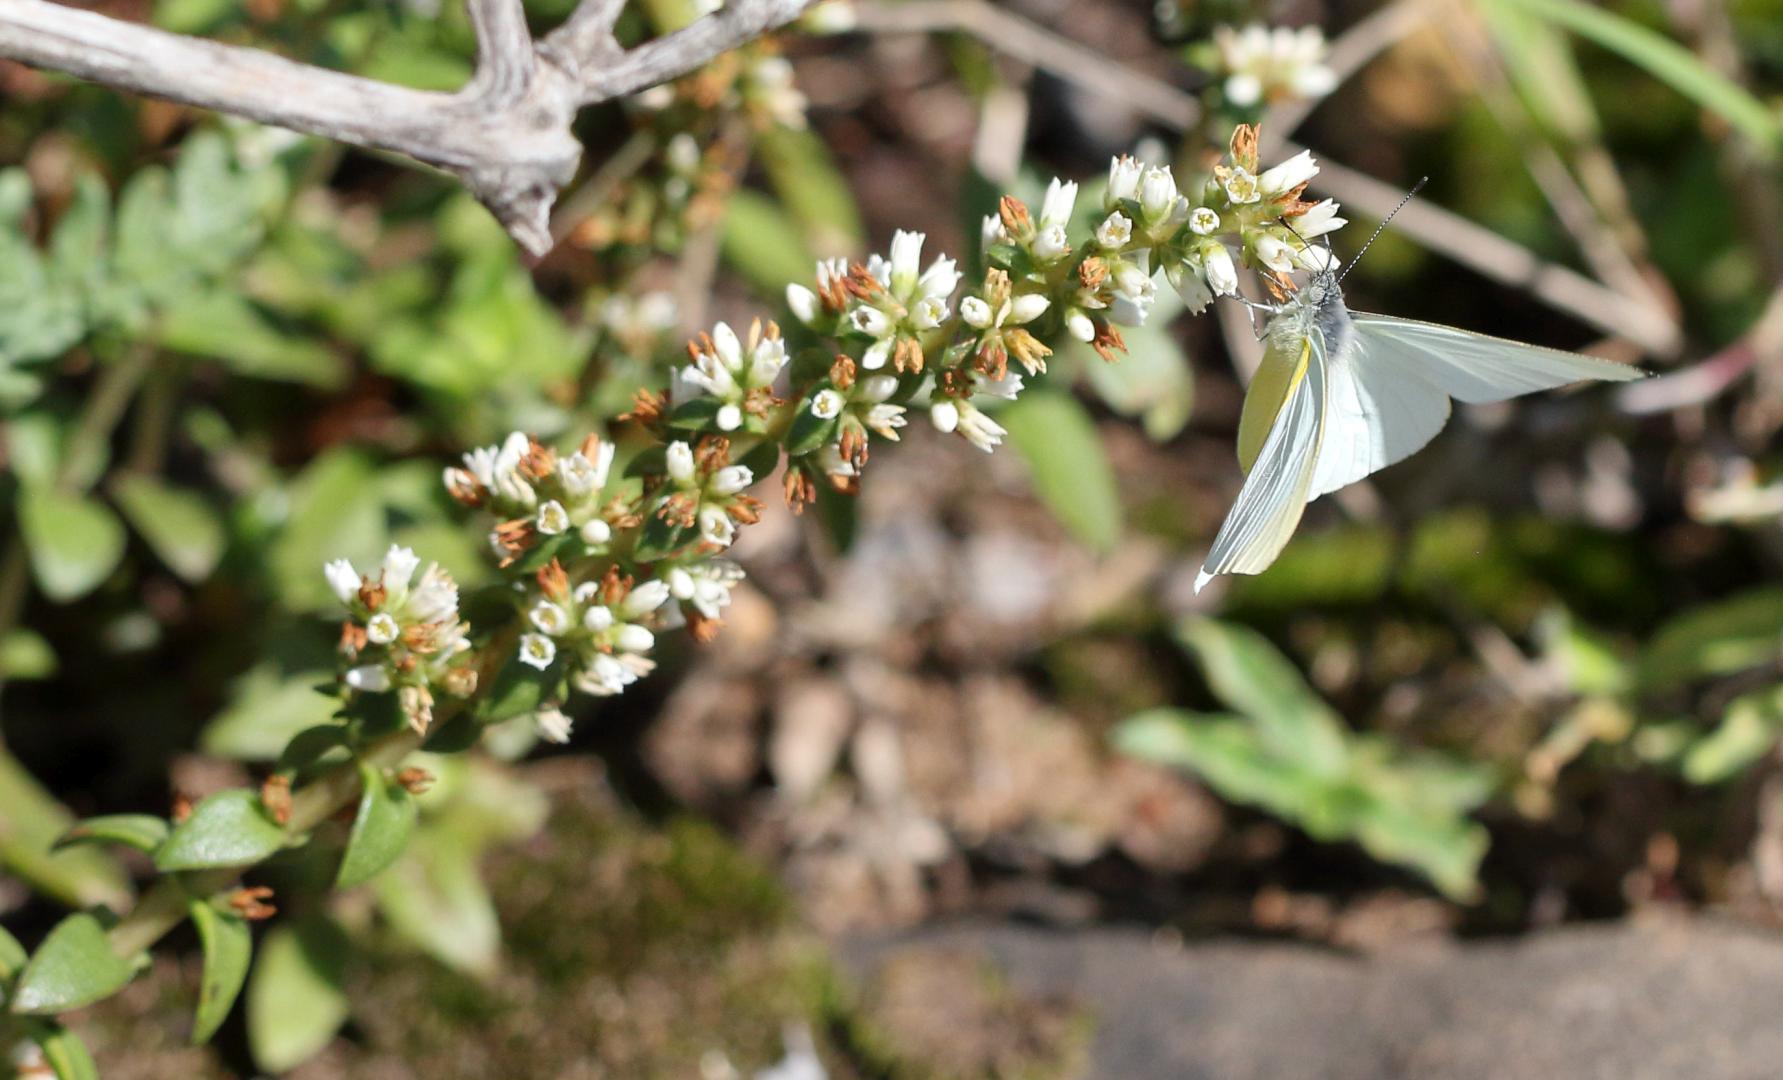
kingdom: Animalia
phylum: Arthropoda
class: Insecta
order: Lepidoptera
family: Pieridae
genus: Dixeia
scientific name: Dixeia pigea
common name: Ant-heap small white
